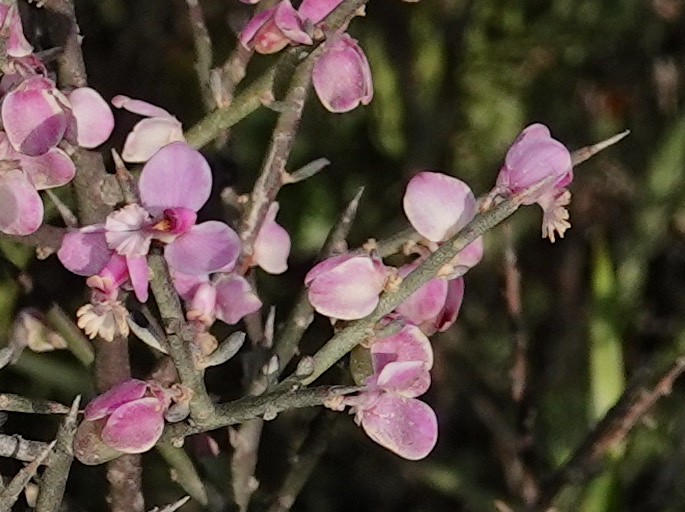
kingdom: Plantae
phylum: Tracheophyta
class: Magnoliopsida
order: Fabales
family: Polygalaceae
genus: Muraltia
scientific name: Muraltia spinosa
